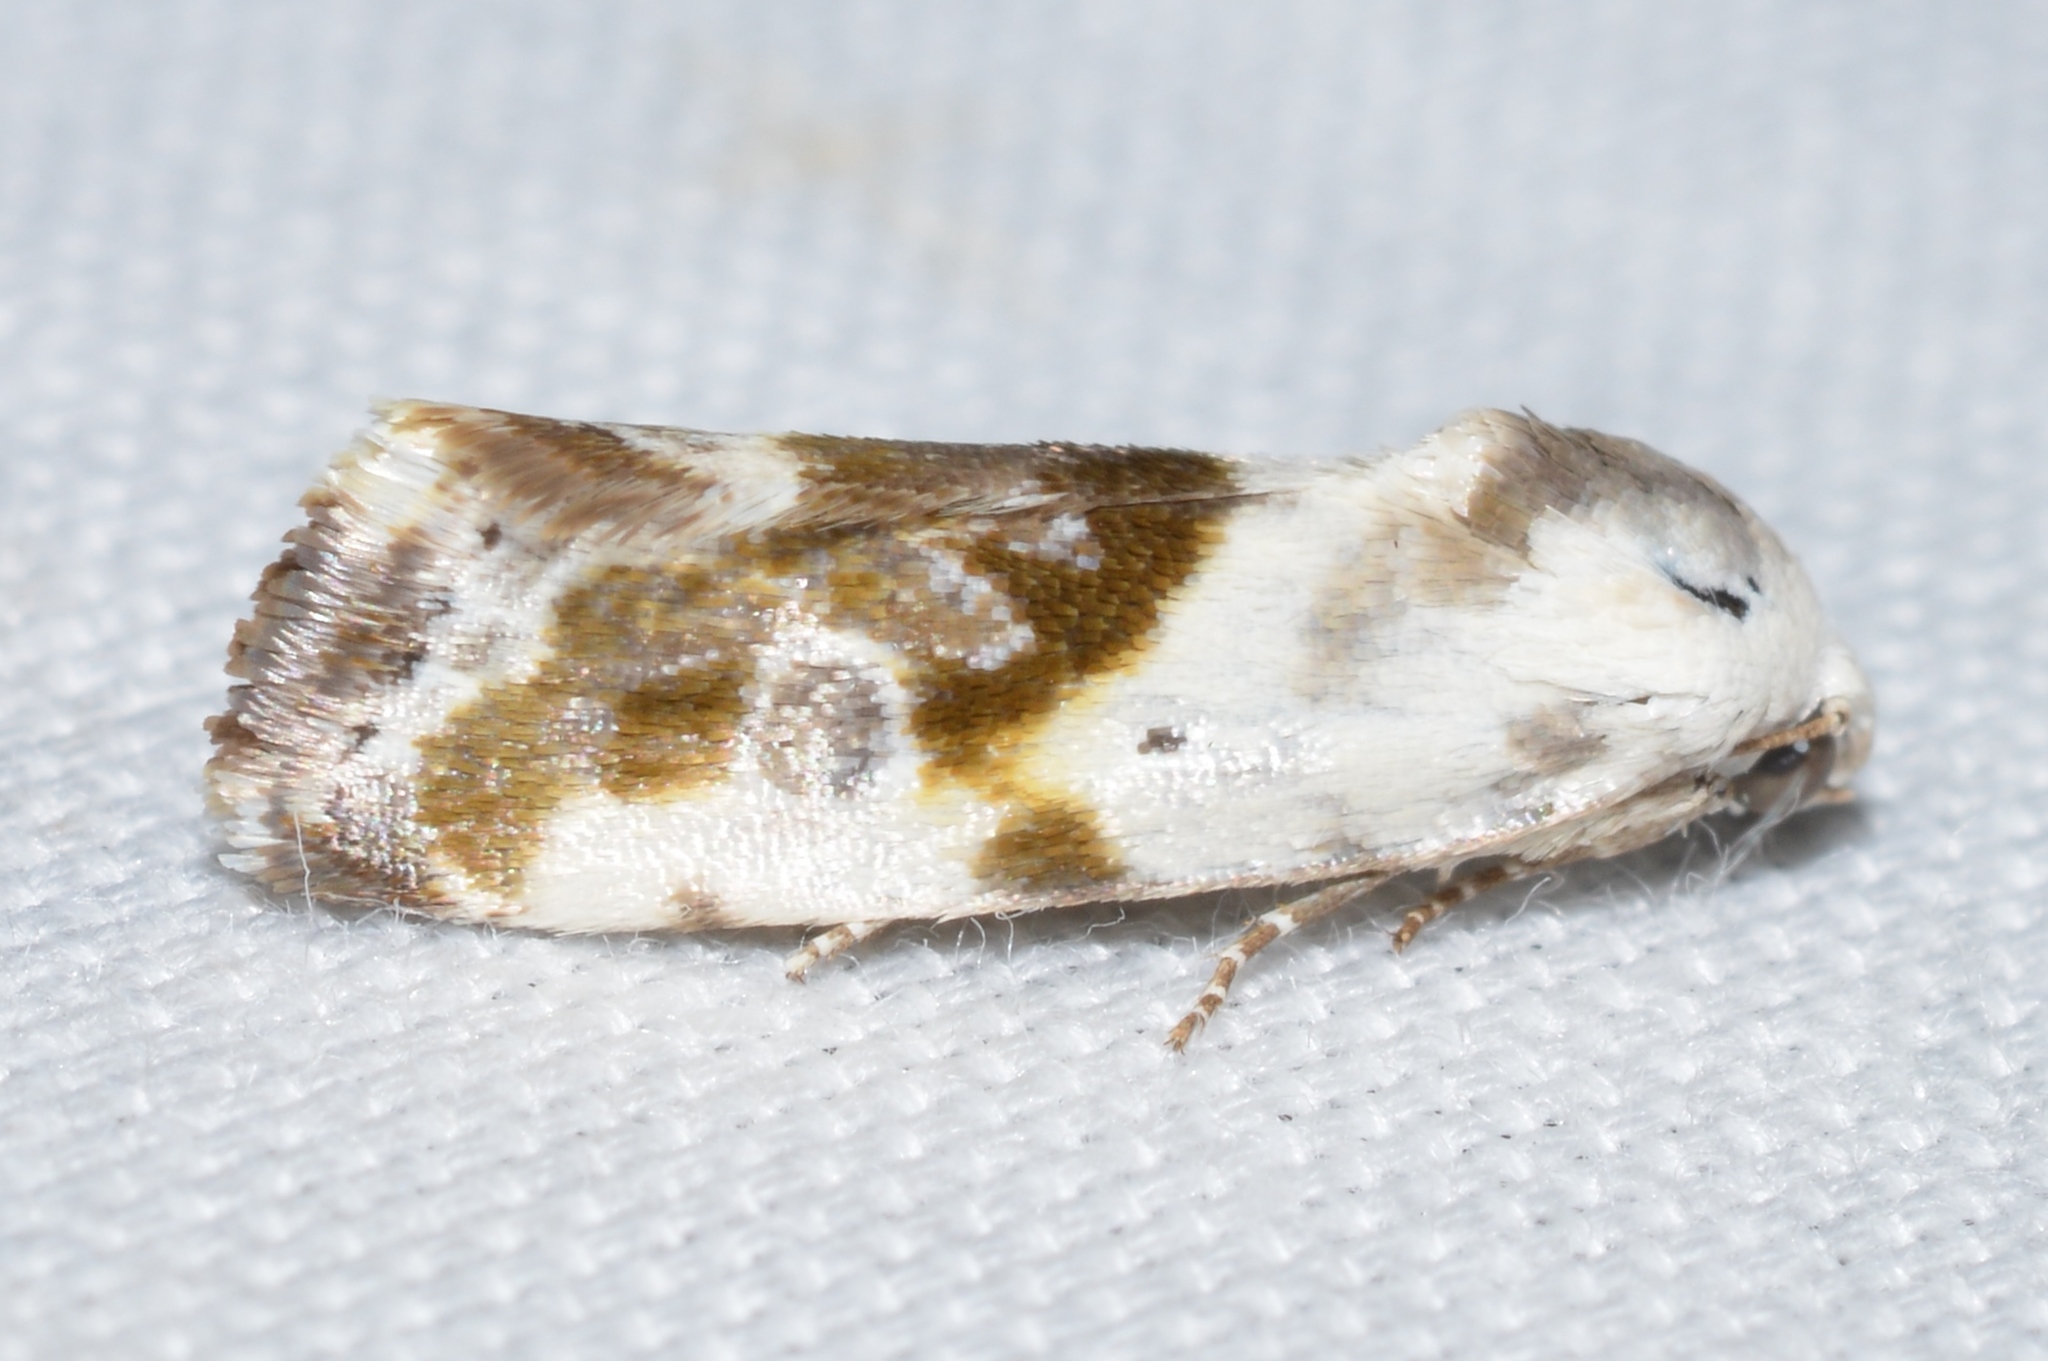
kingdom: Animalia
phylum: Arthropoda
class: Insecta
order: Lepidoptera
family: Noctuidae
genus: Acontia
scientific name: Acontia candefacta
